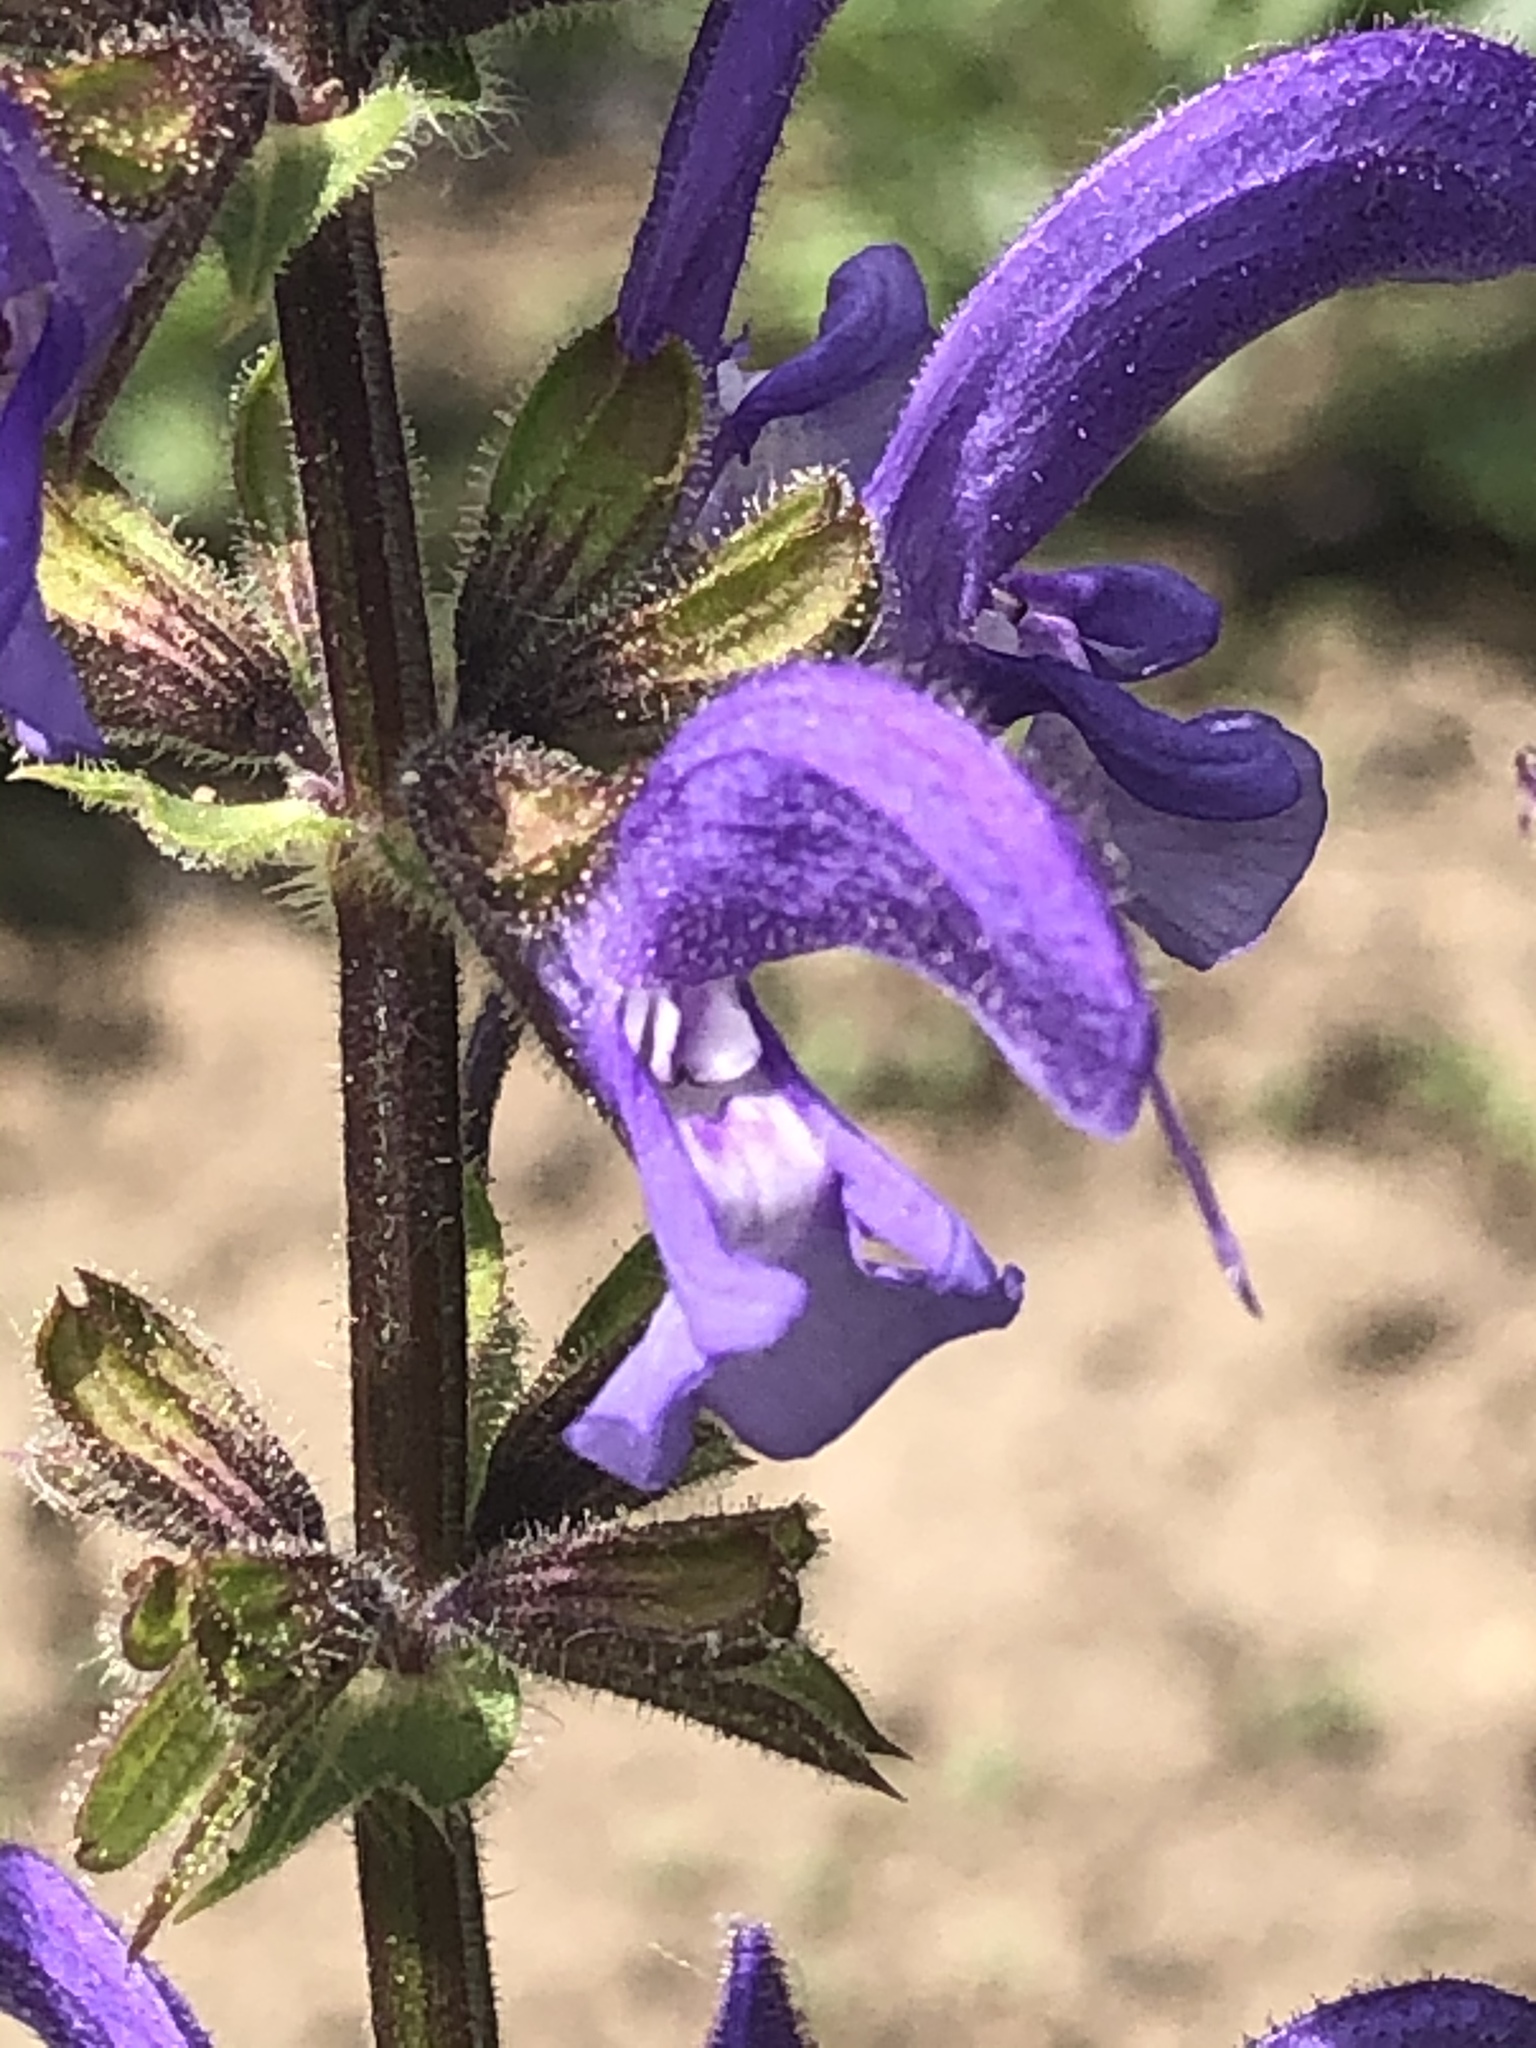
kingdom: Plantae
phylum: Tracheophyta
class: Magnoliopsida
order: Lamiales
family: Lamiaceae
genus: Salvia
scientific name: Salvia pratensis
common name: Meadow sage
